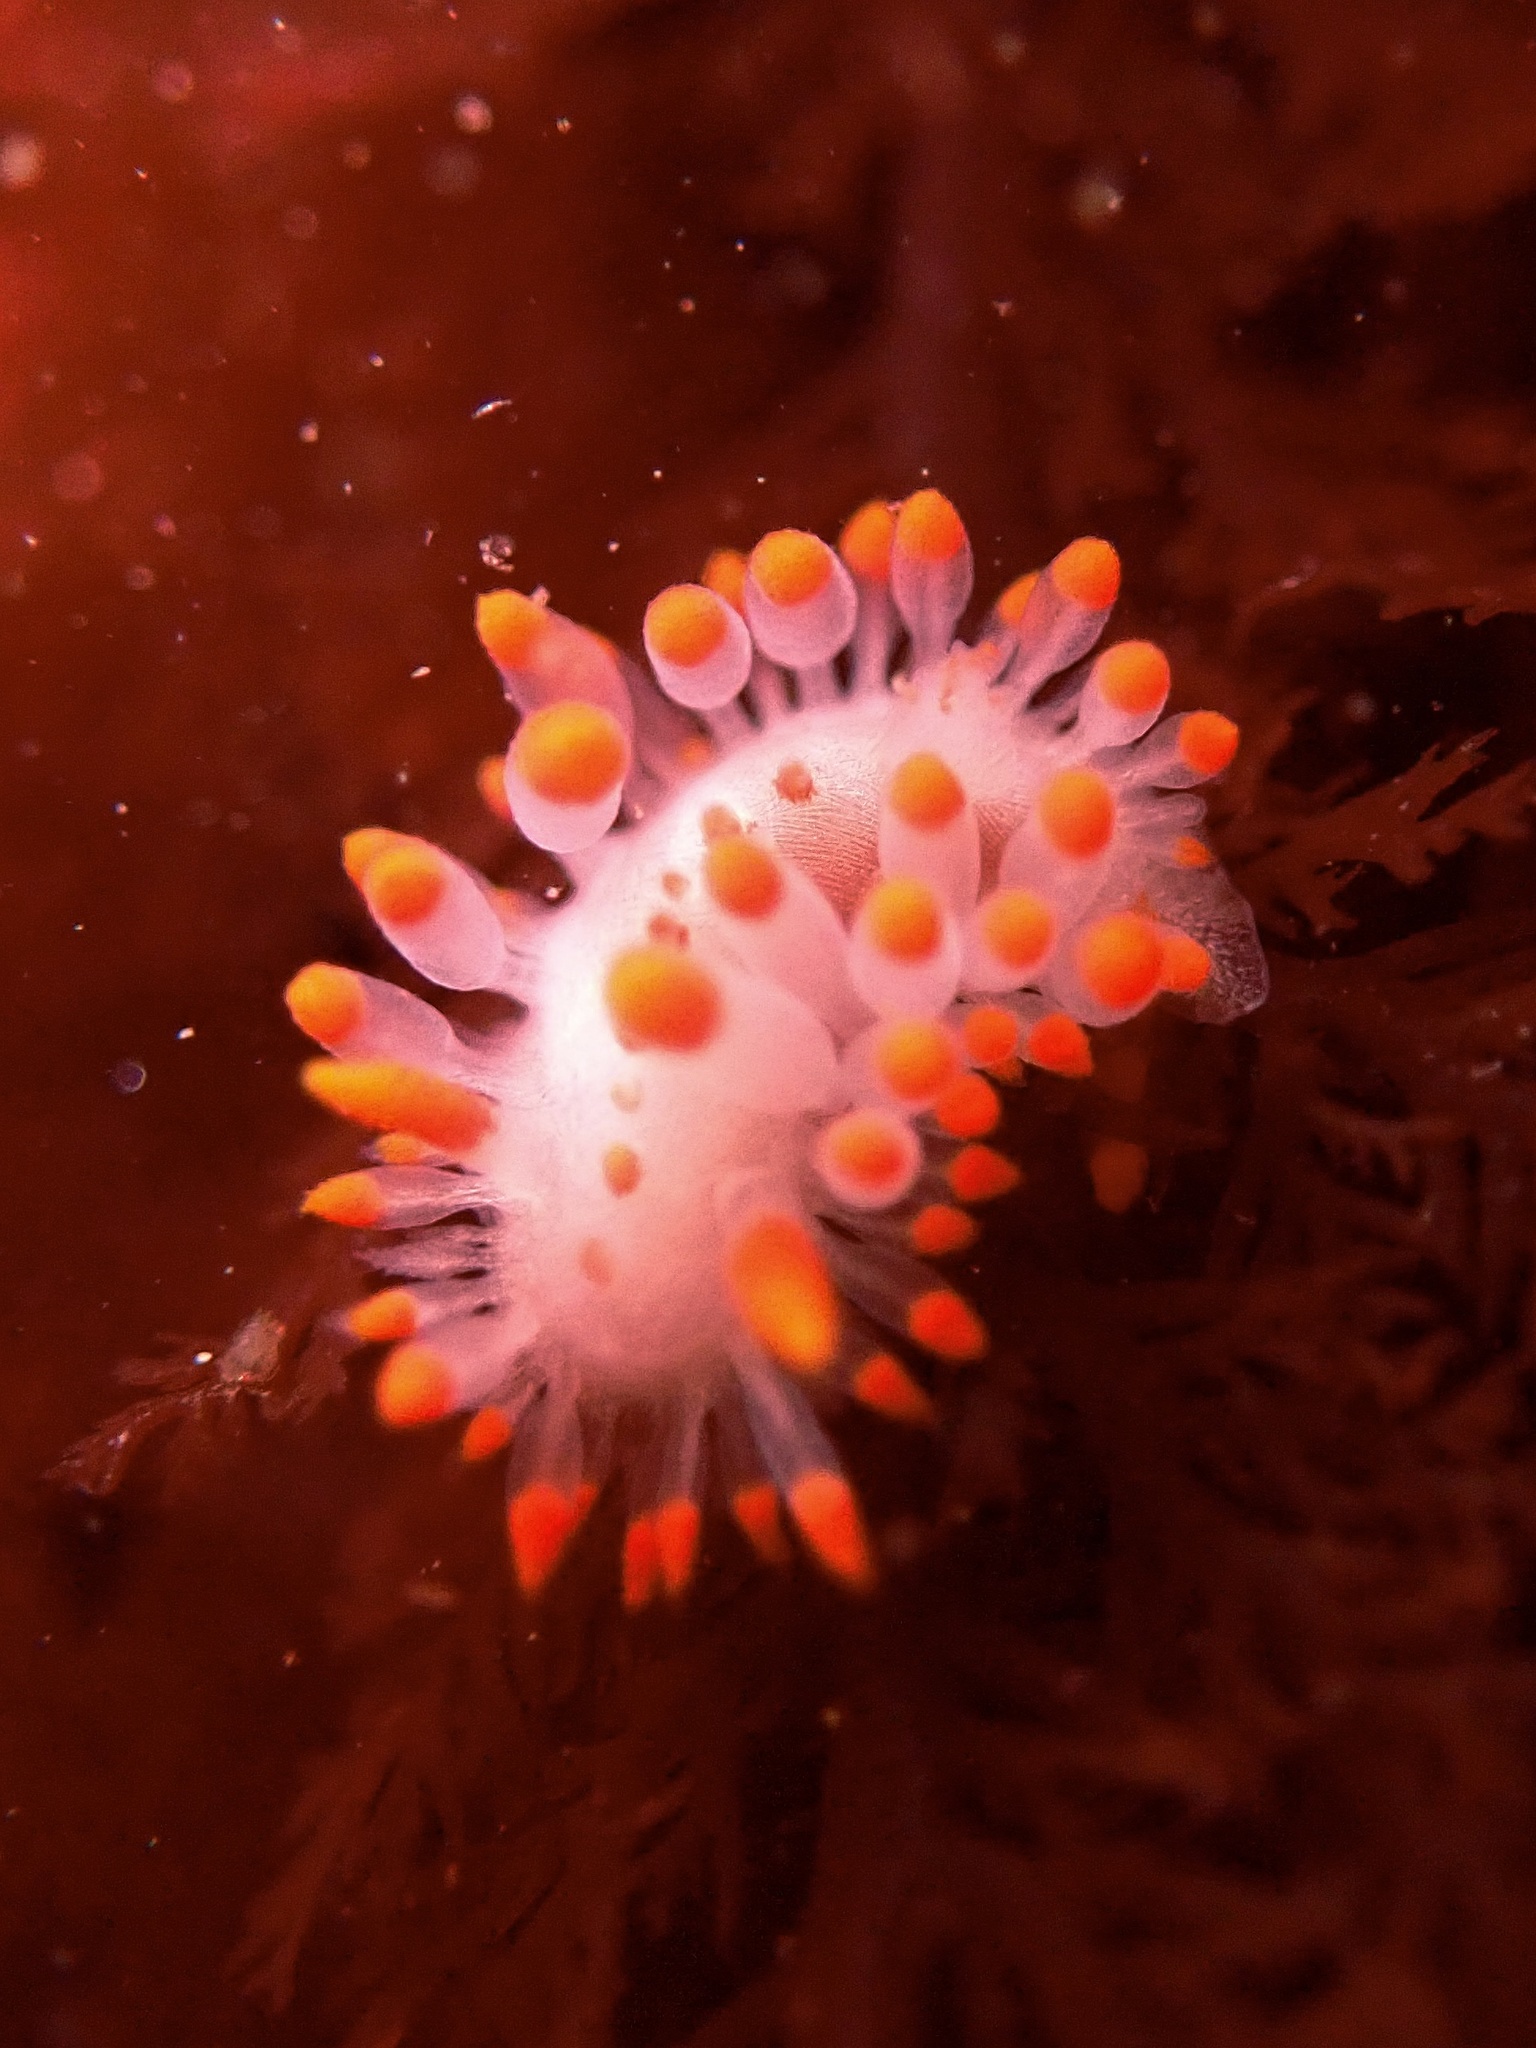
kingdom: Animalia
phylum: Mollusca
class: Gastropoda
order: Nudibranchia
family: Polyceridae
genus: Limacia
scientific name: Limacia mcdonaldi
